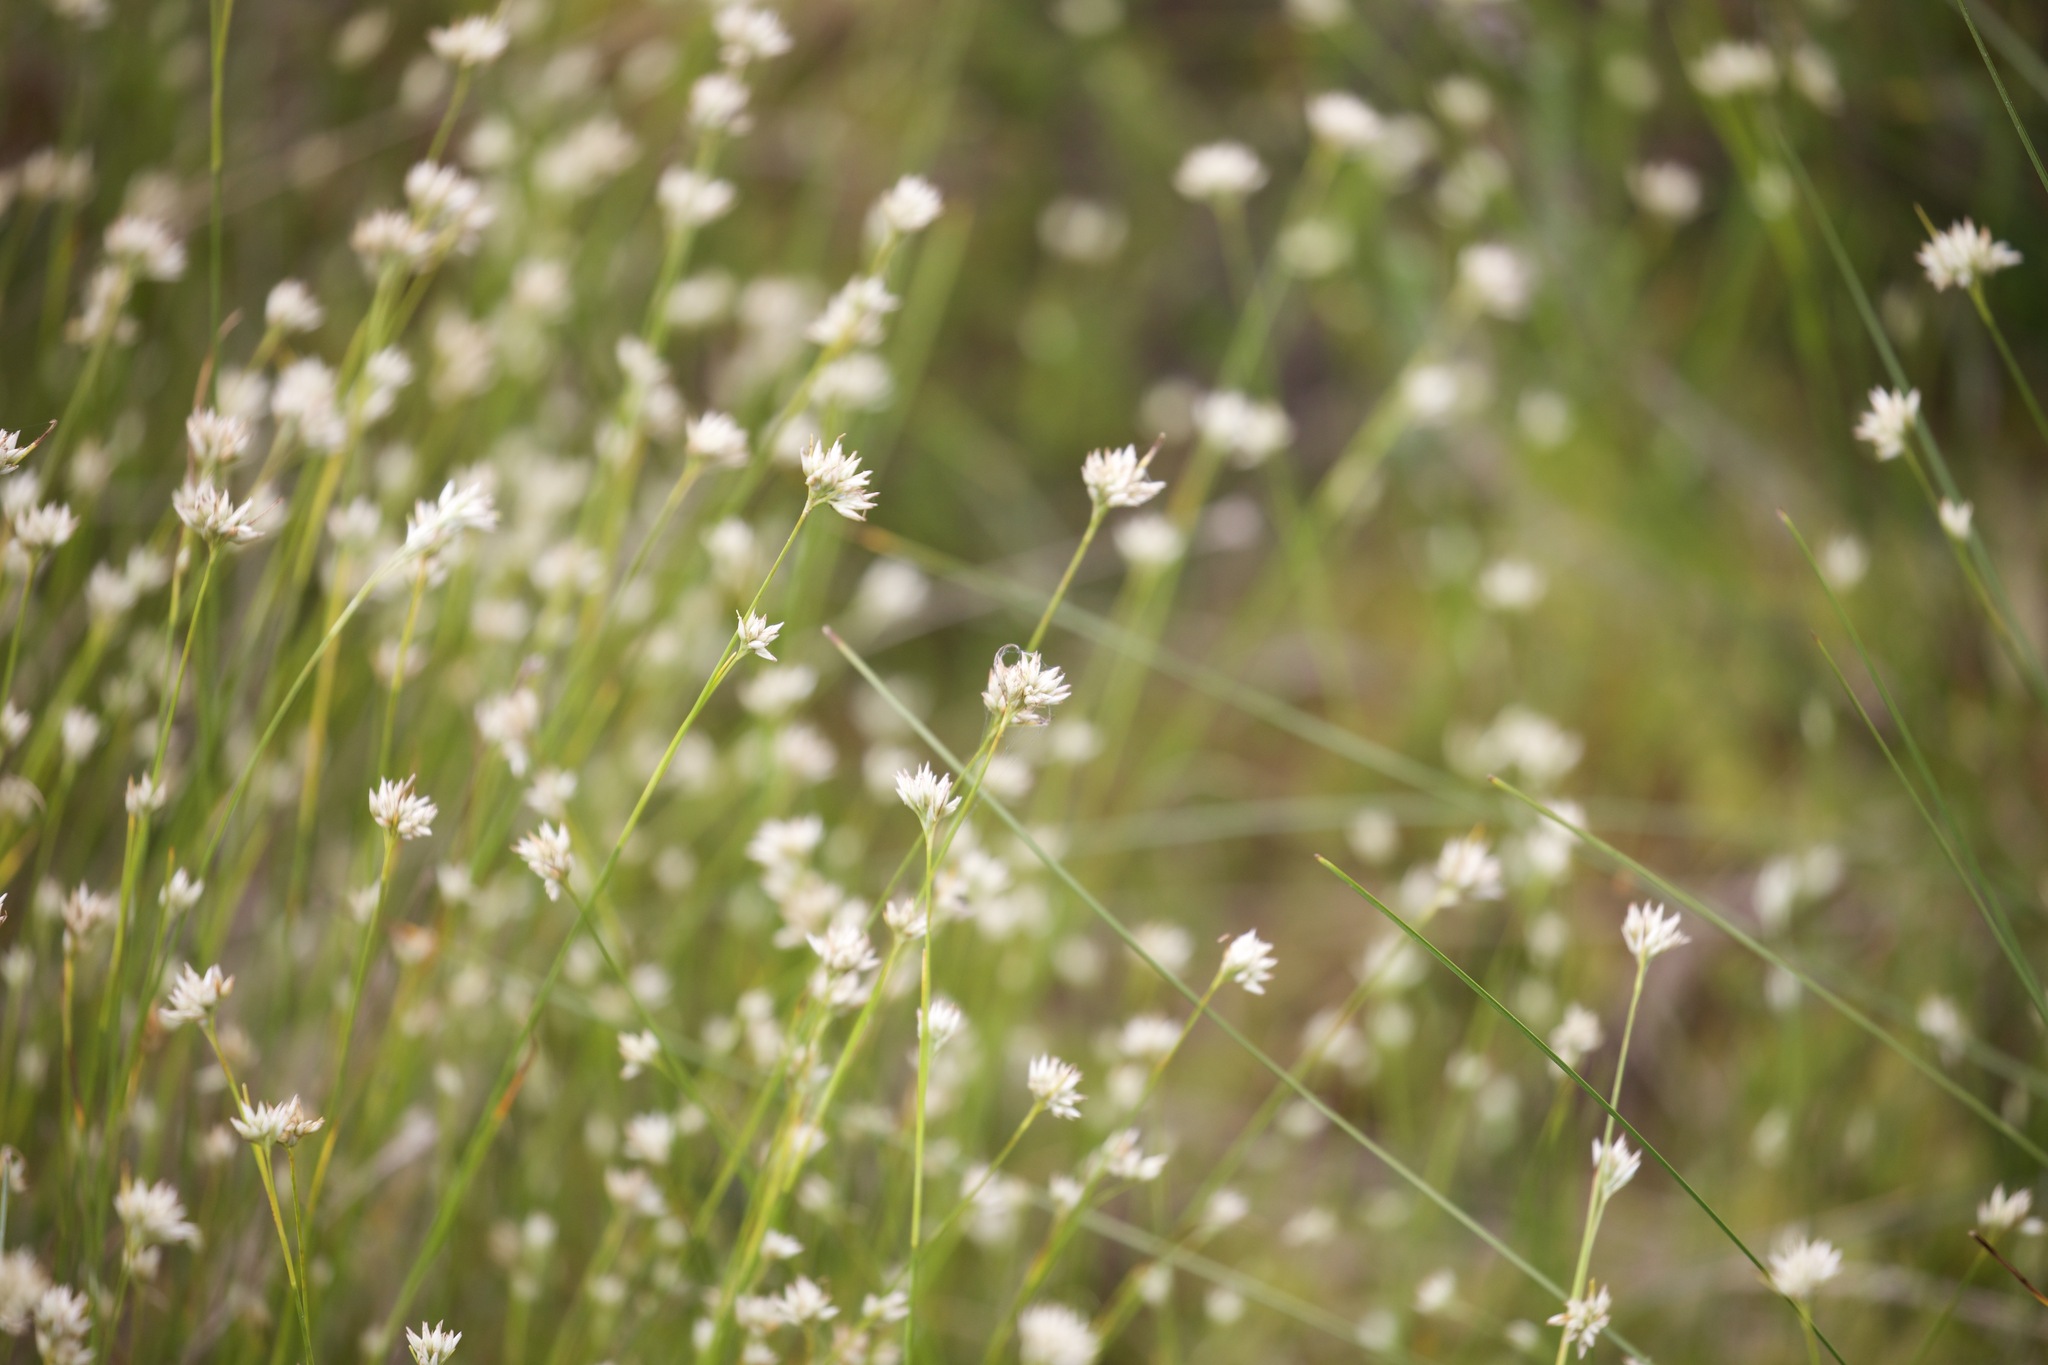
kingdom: Plantae
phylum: Tracheophyta
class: Liliopsida
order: Poales
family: Cyperaceae
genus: Rhynchospora
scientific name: Rhynchospora alba
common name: White beak-sedge
